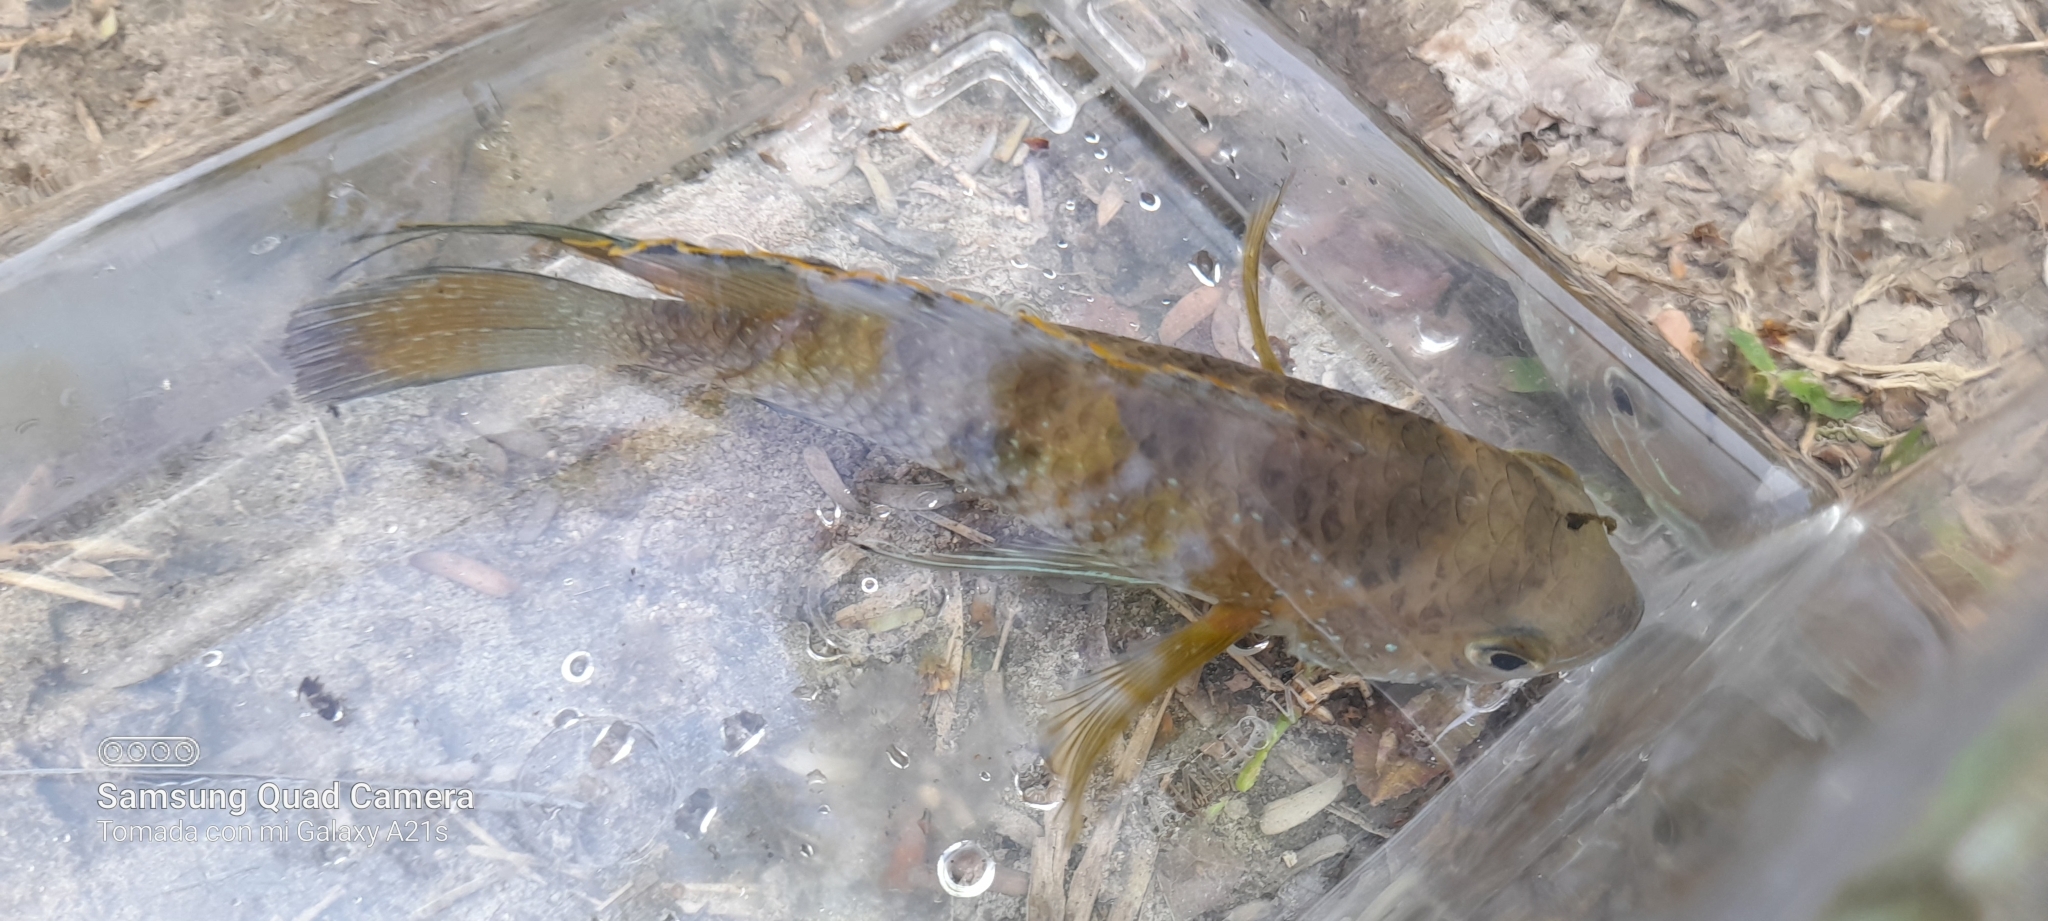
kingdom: Animalia
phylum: Chordata
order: Perciformes
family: Cichlidae
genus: Andinoacara
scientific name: Andinoacara coeruleopunctatus
